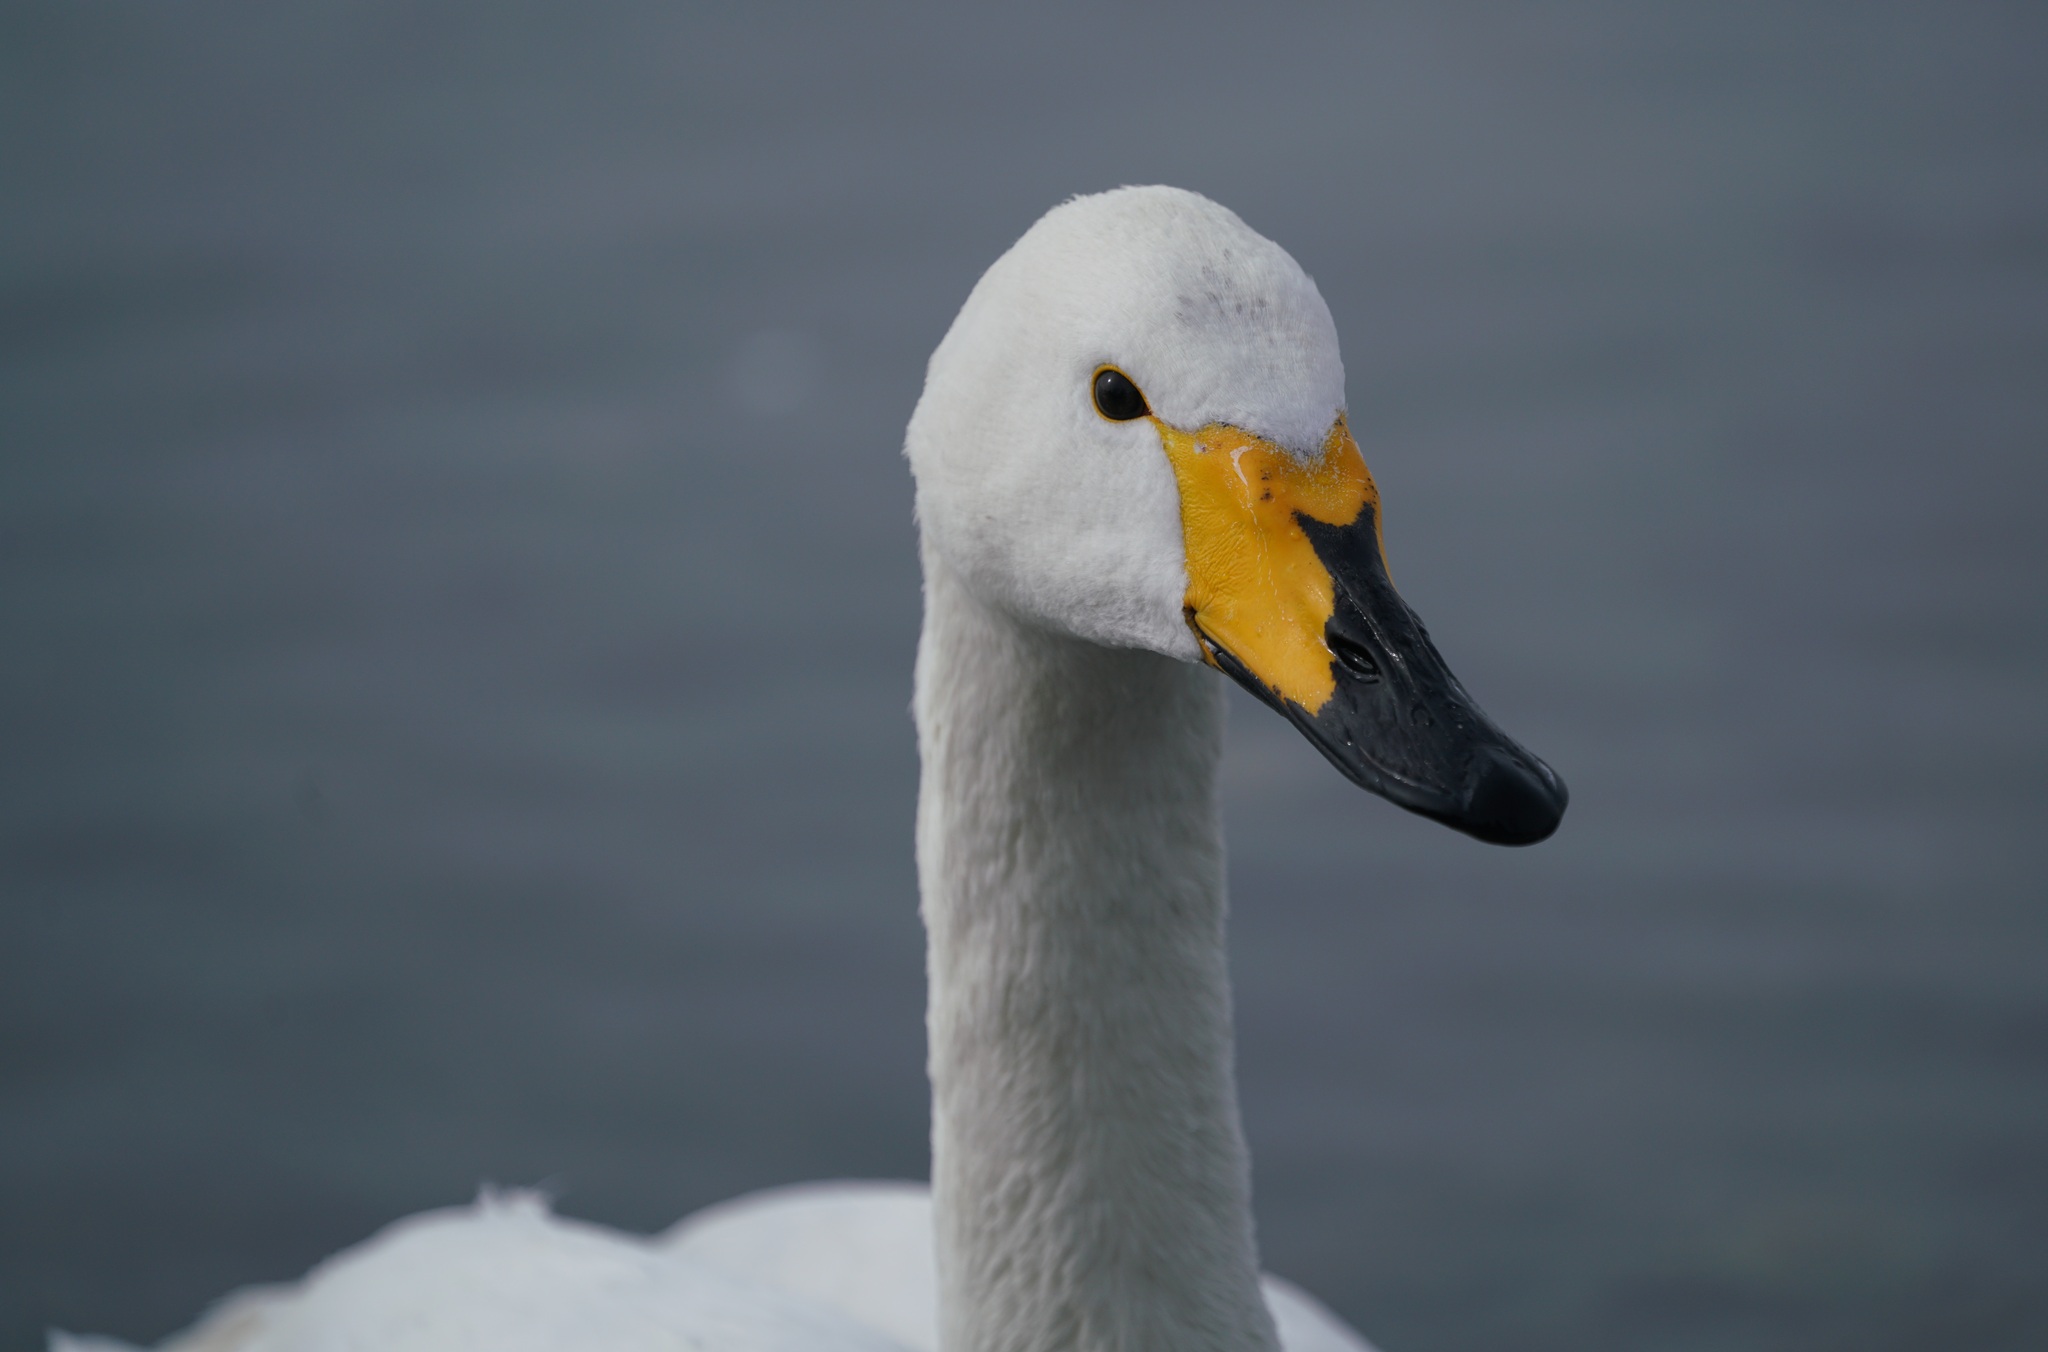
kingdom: Animalia
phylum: Chordata
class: Aves
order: Anseriformes
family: Anatidae
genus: Cygnus
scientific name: Cygnus cygnus
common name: Whooper swan
